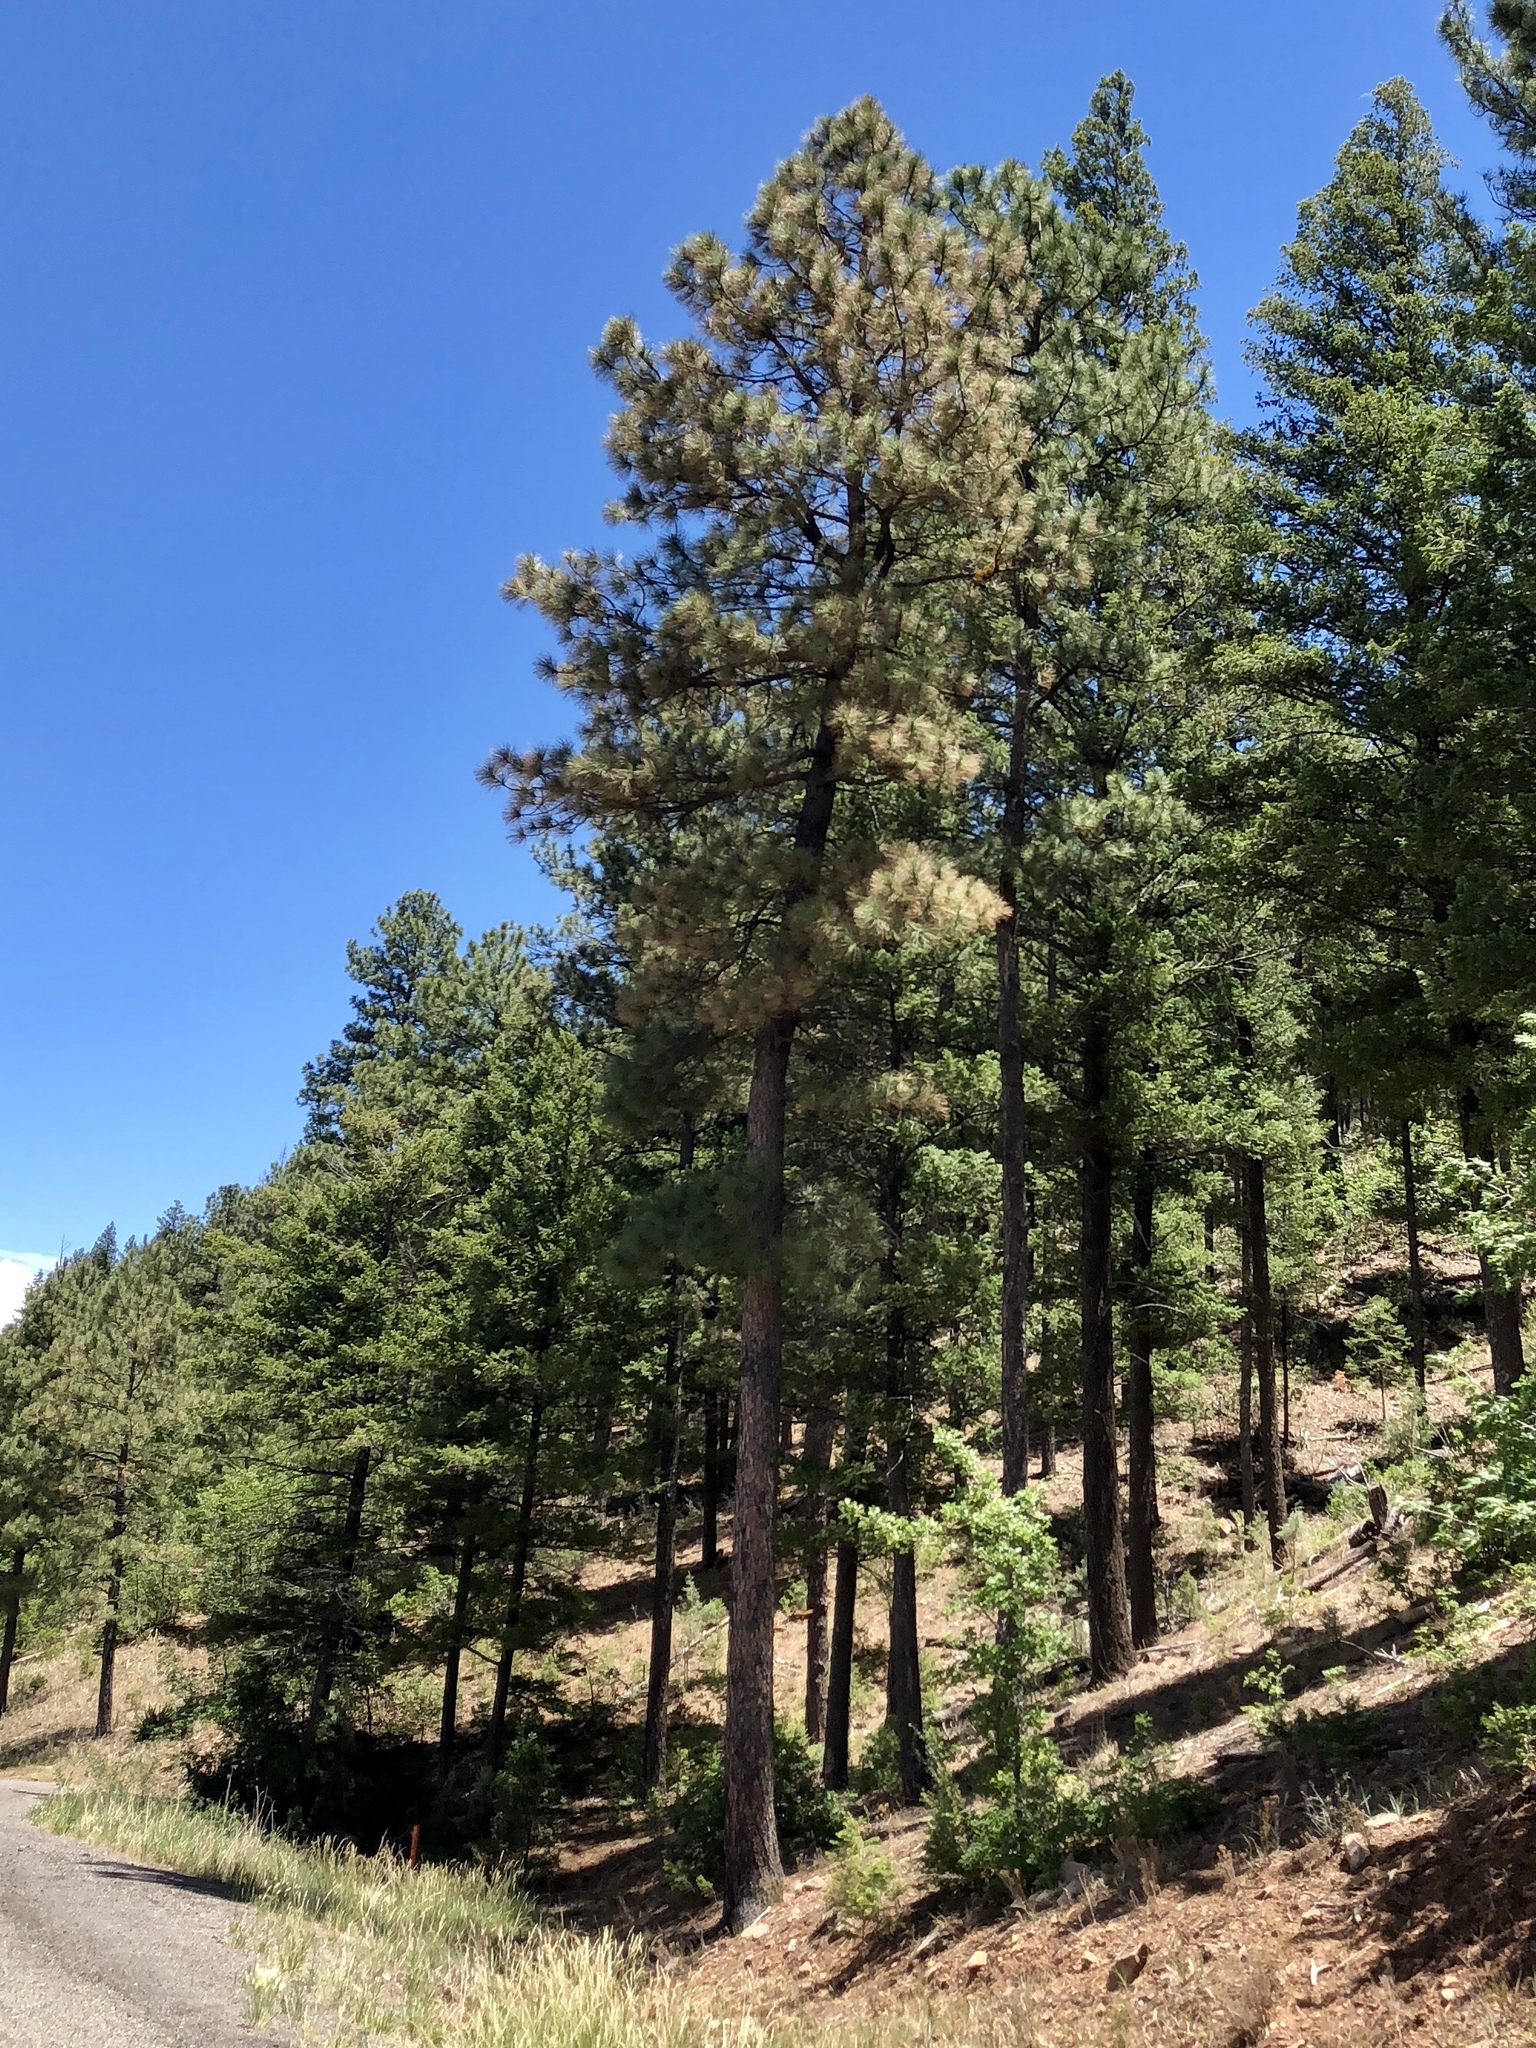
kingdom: Plantae
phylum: Tracheophyta
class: Pinopsida
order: Pinales
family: Pinaceae
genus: Pinus
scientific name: Pinus ponderosa
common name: Western yellow-pine
